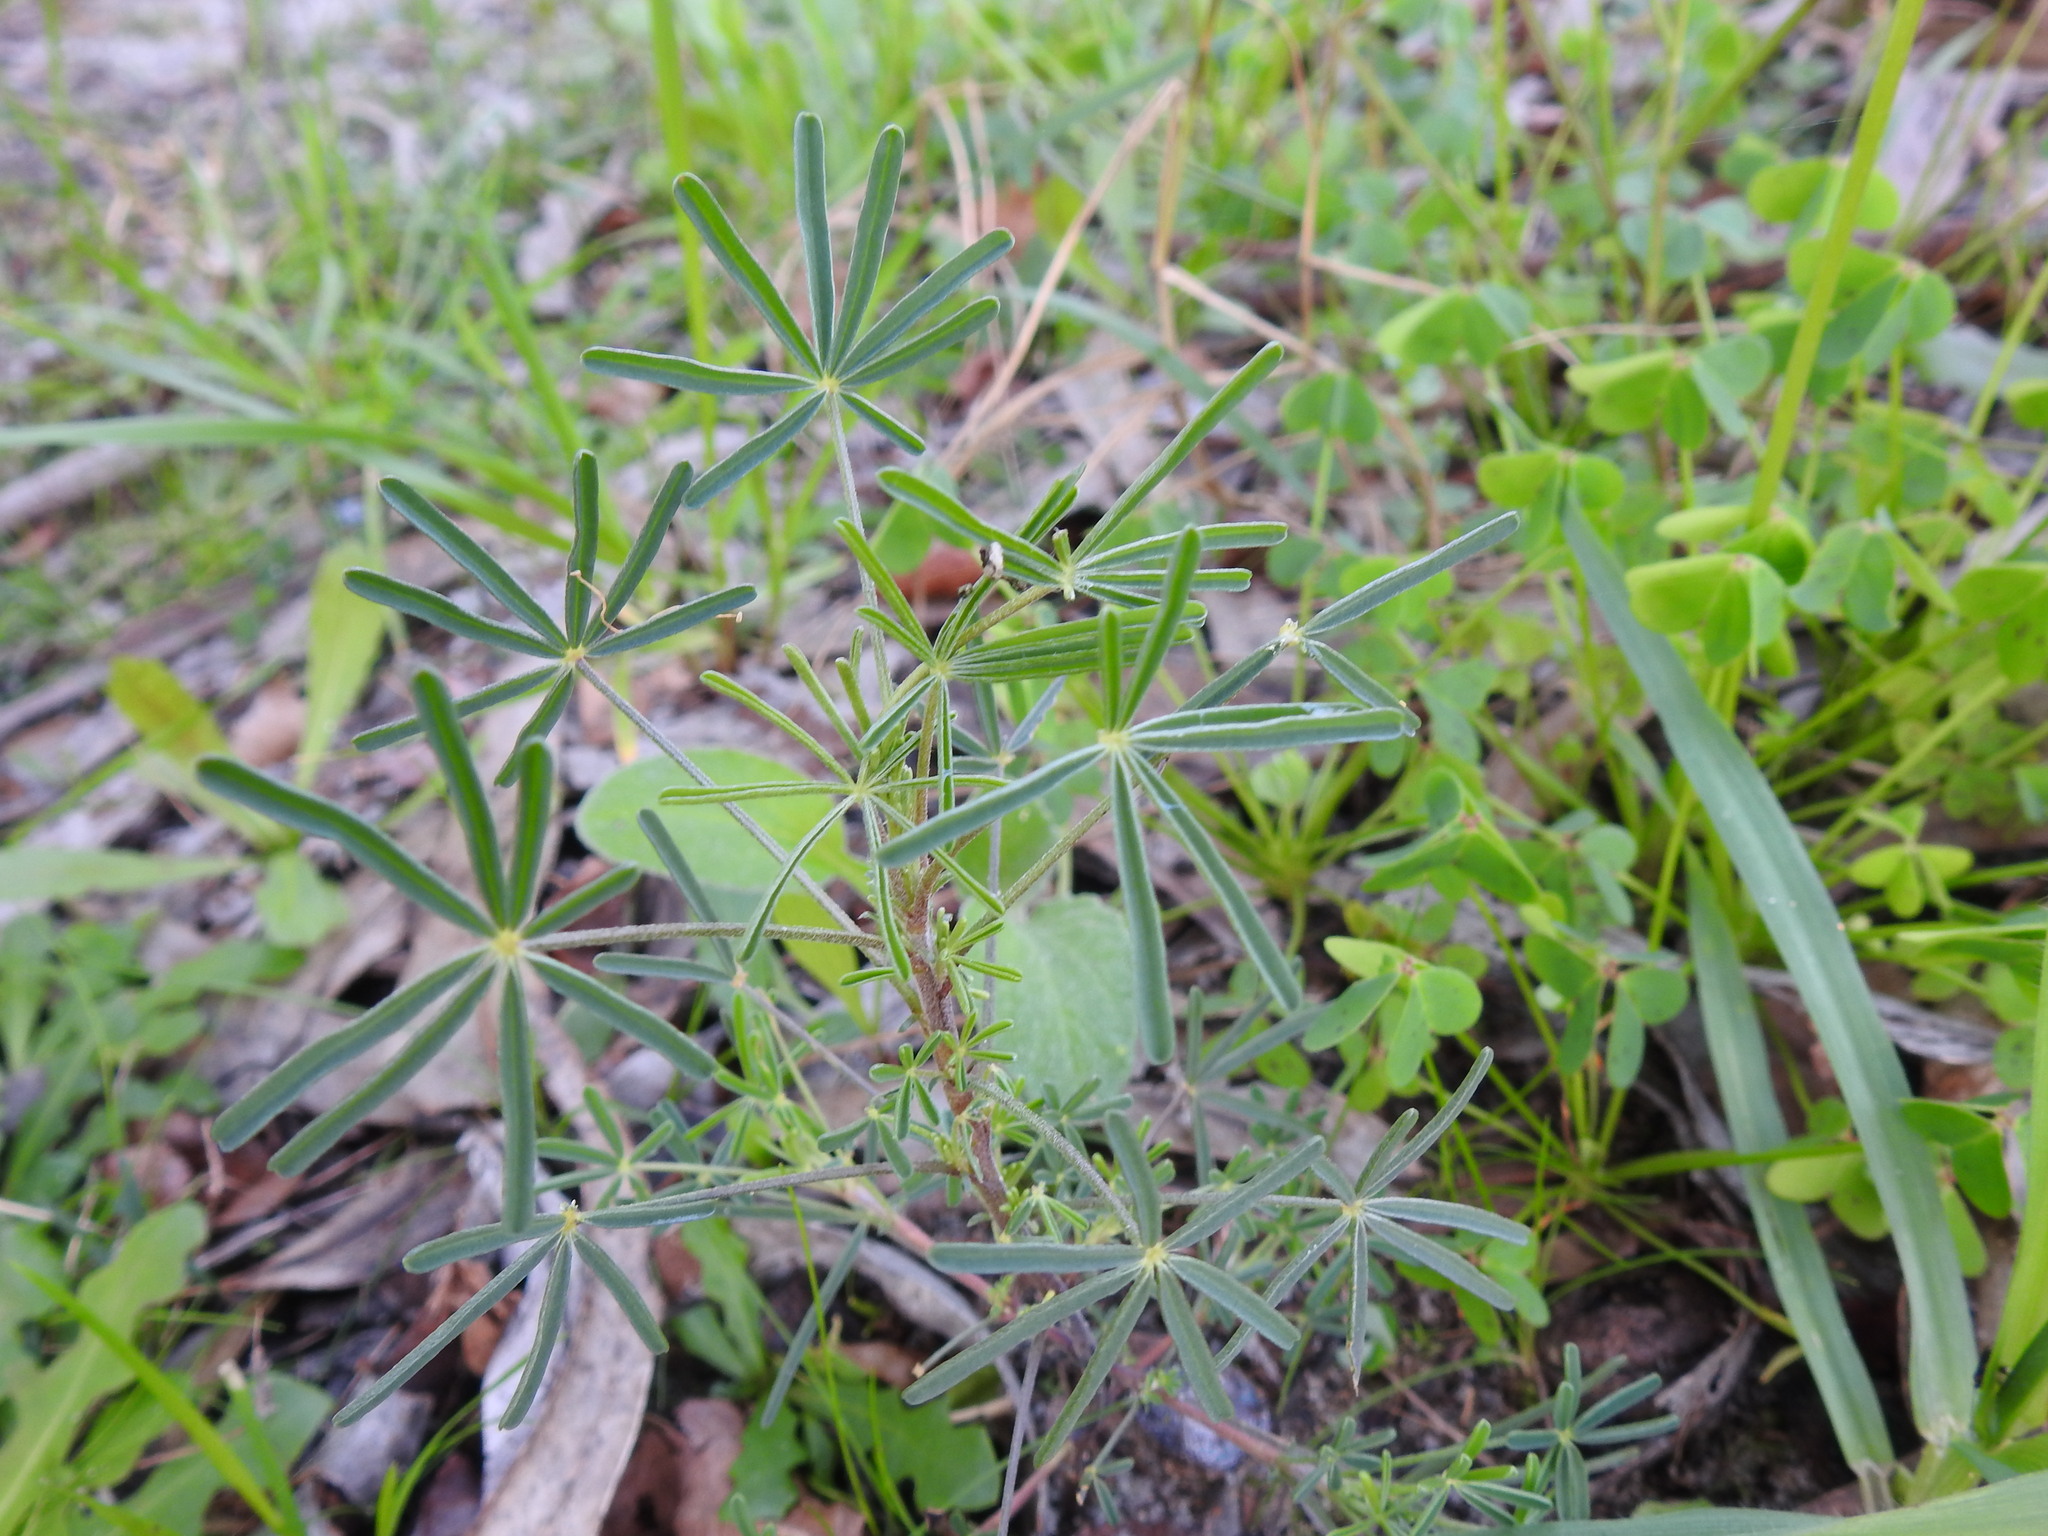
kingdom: Plantae
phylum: Tracheophyta
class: Magnoliopsida
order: Fabales
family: Fabaceae
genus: Lupinus
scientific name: Lupinus angustifolius
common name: Narrow-leaved lupin
